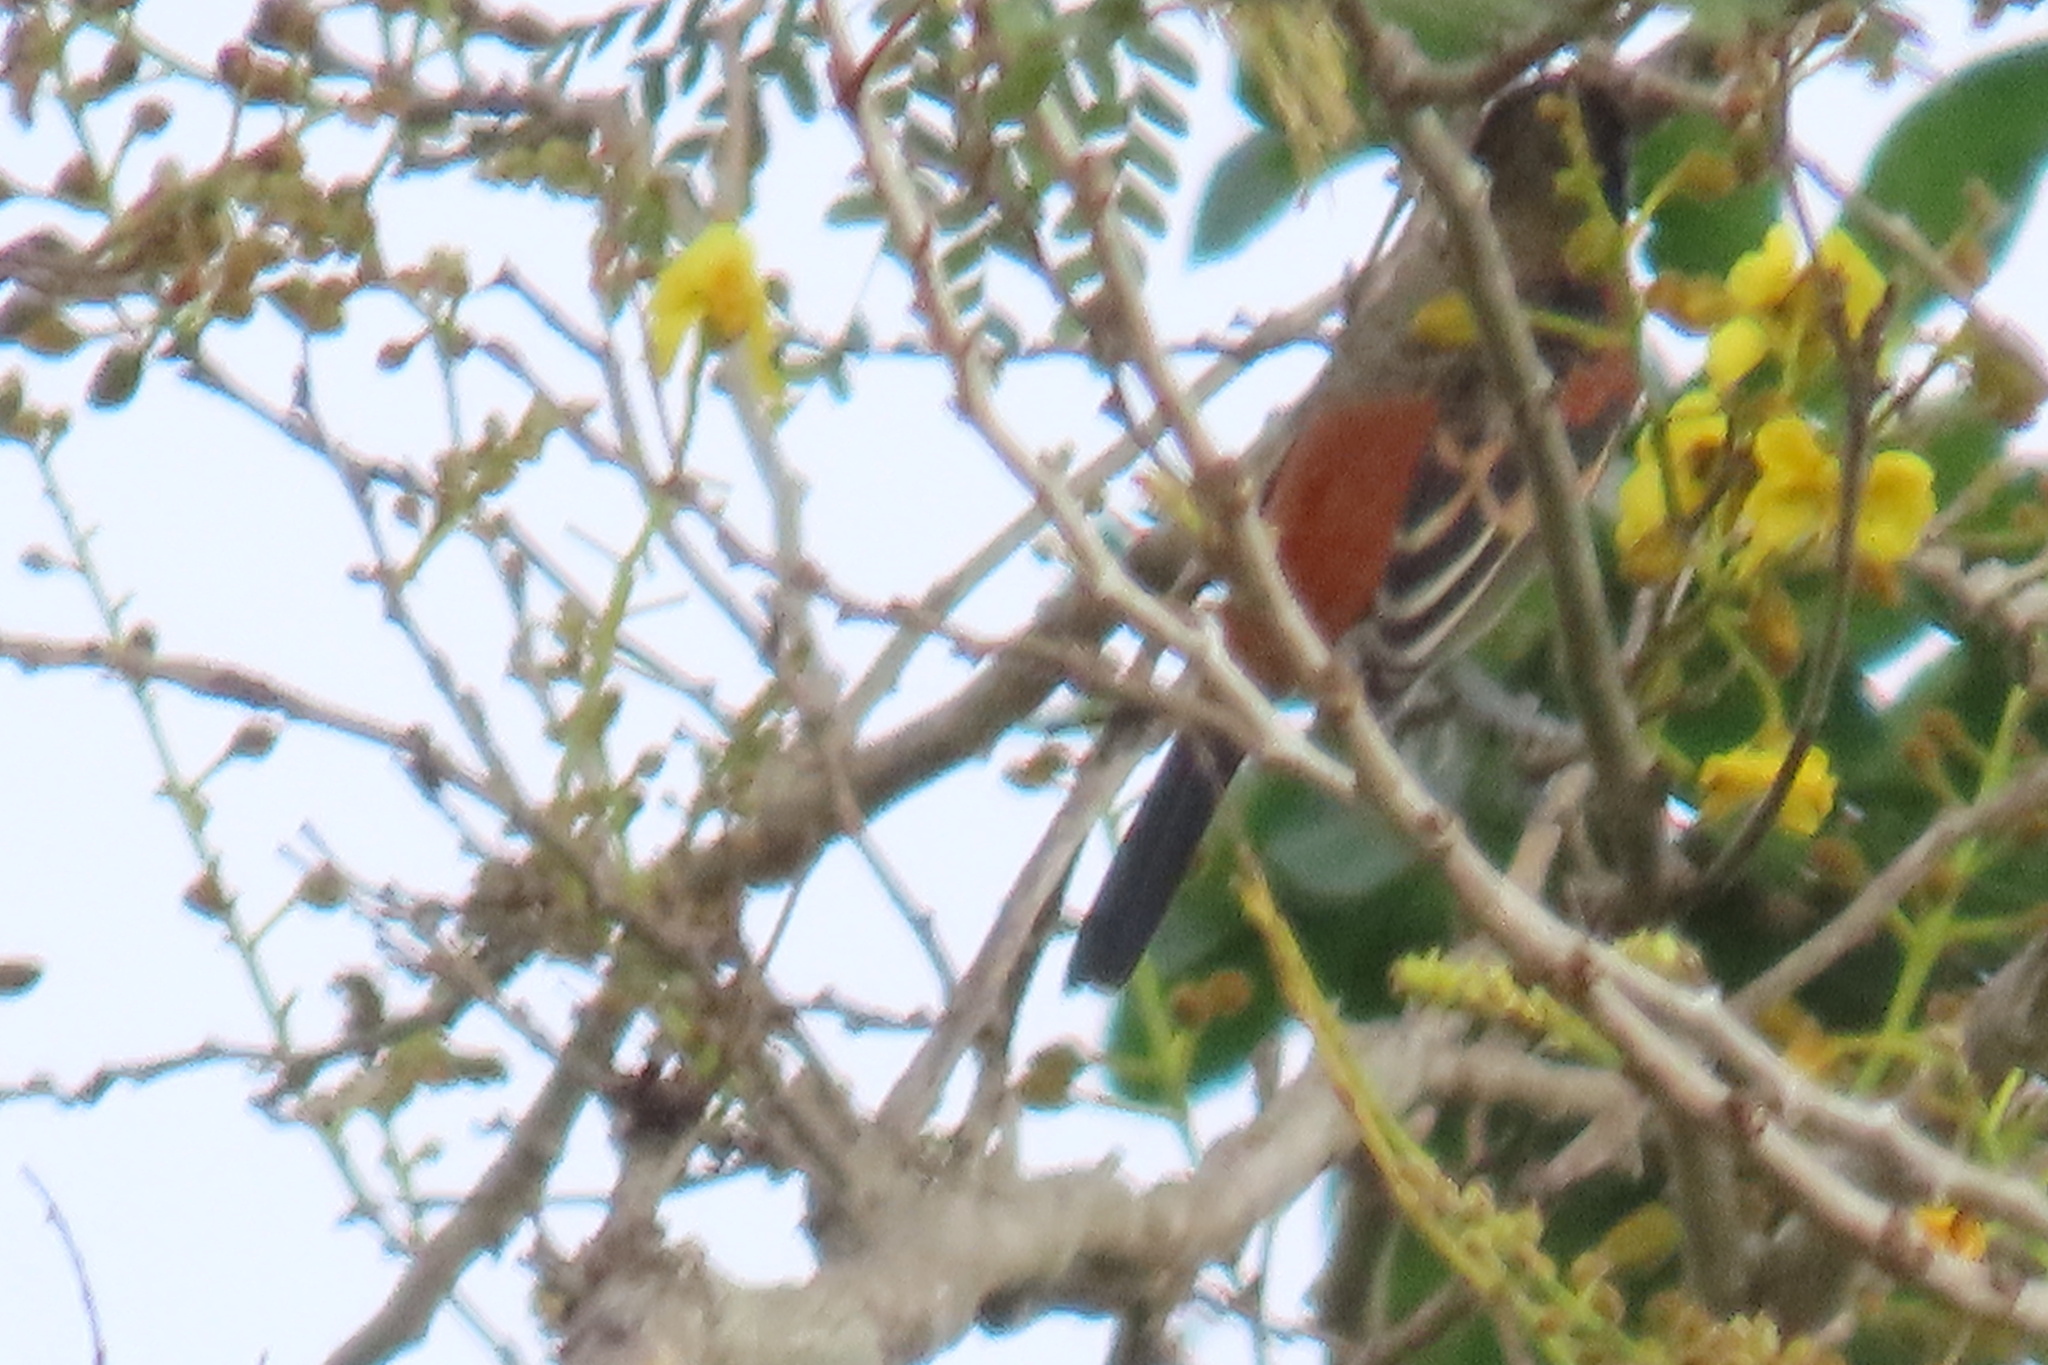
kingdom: Animalia
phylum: Chordata
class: Aves
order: Passeriformes
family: Icteridae
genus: Icterus
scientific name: Icterus spurius
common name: Orchard oriole
